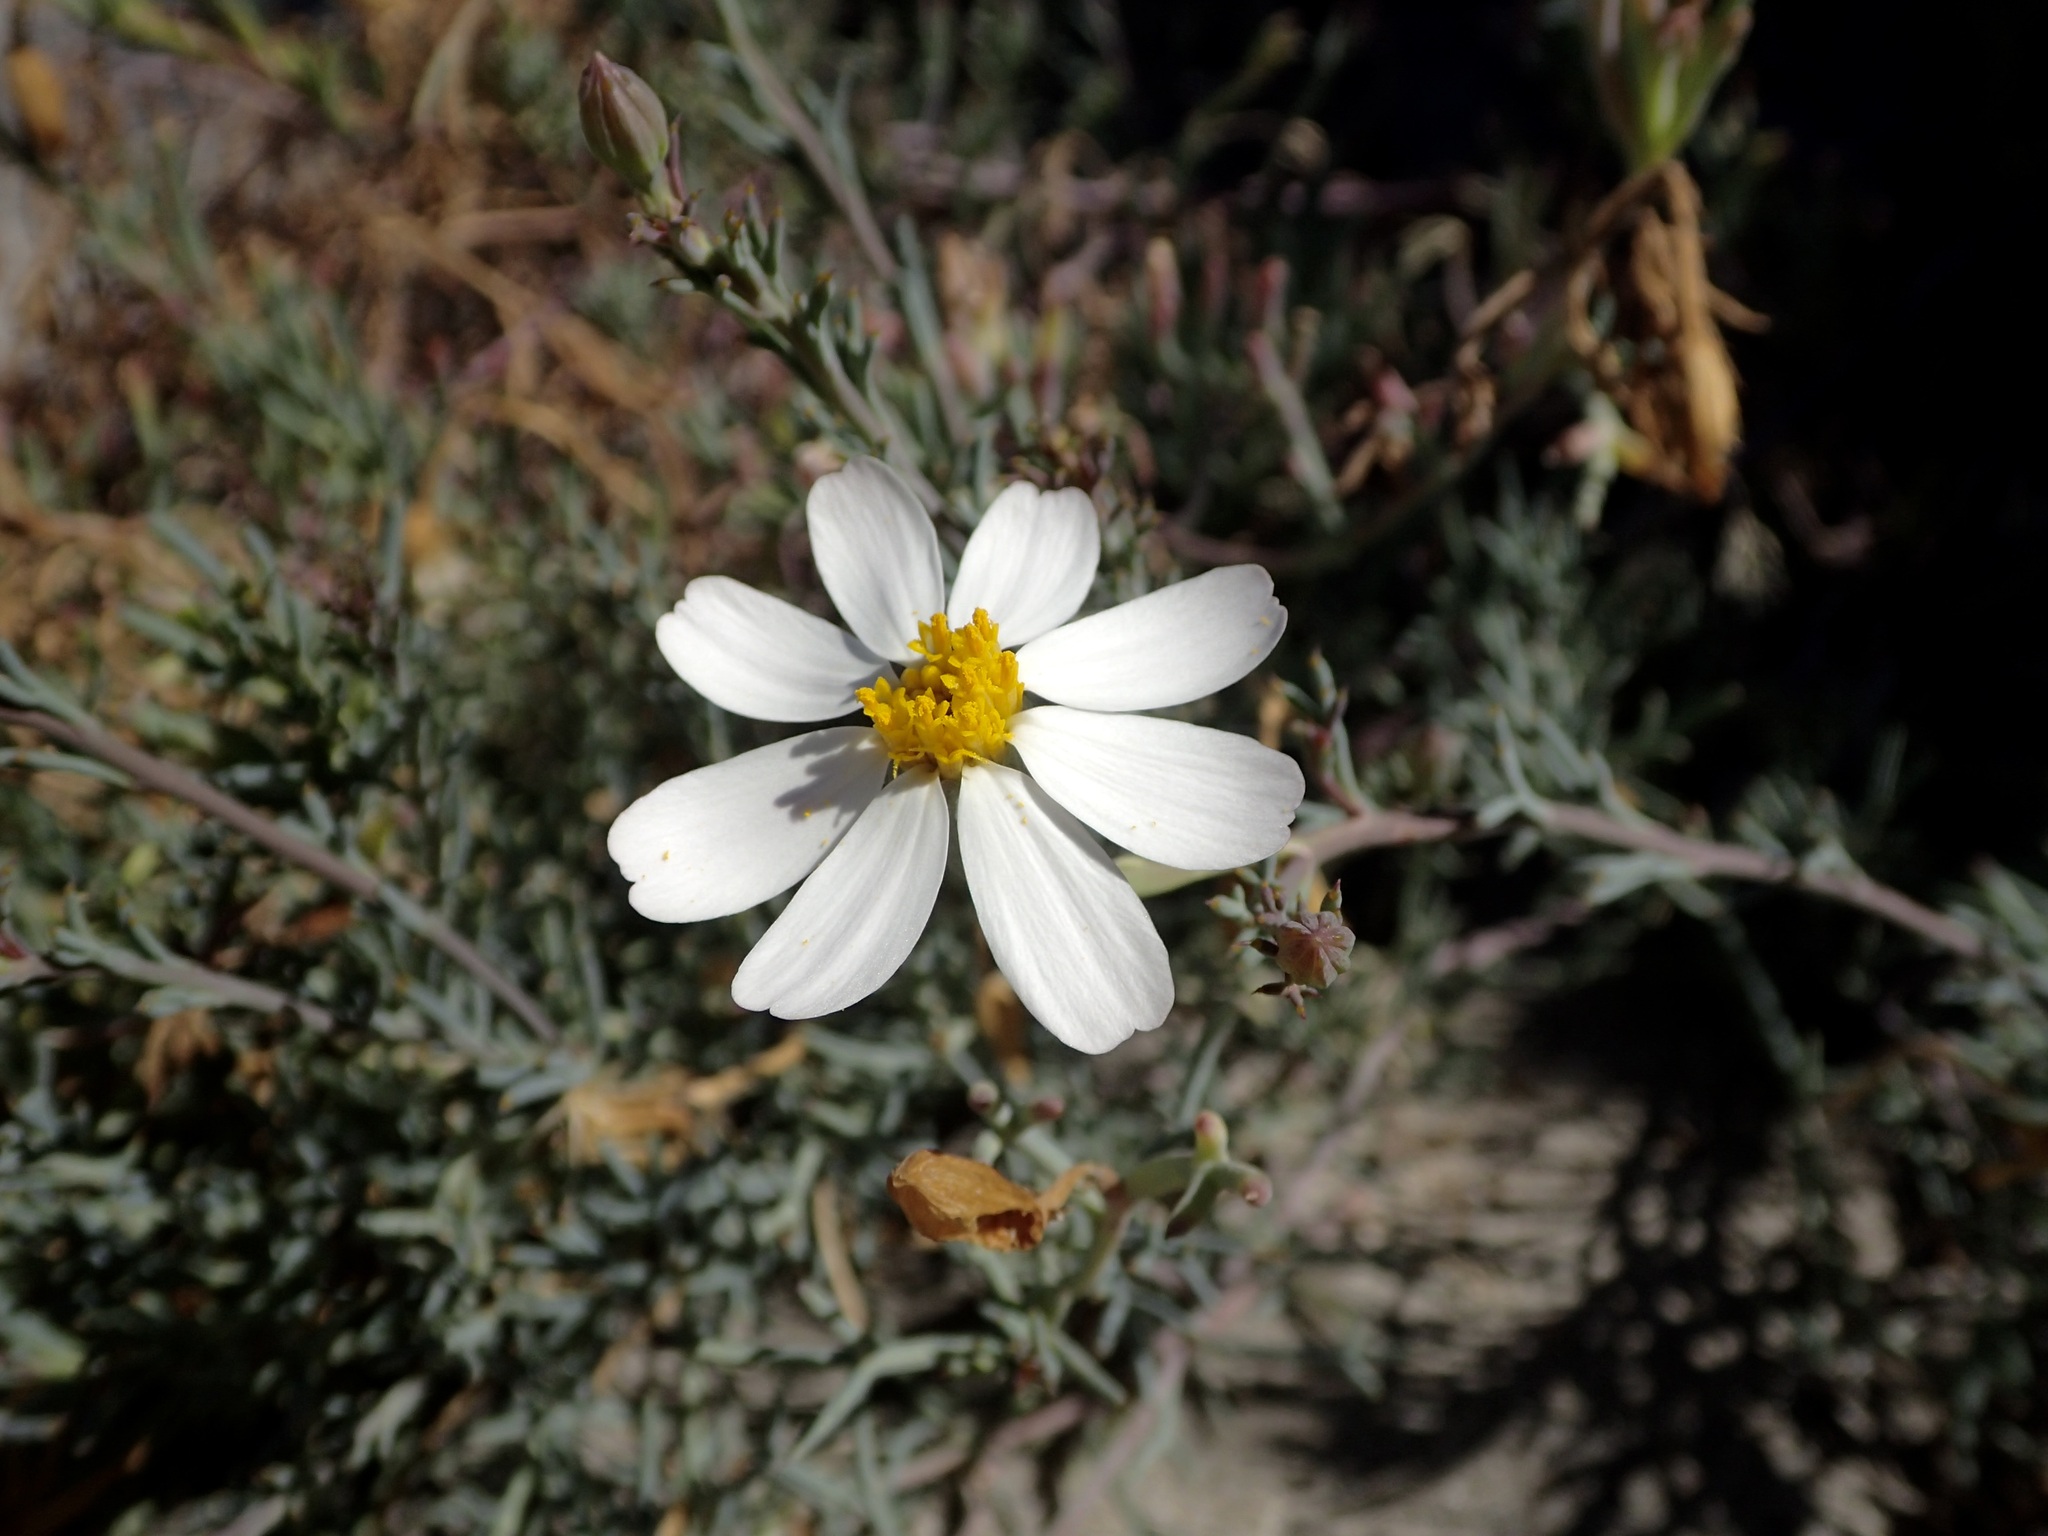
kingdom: Plantae
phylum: Tracheophyta
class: Magnoliopsida
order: Asterales
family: Asteraceae
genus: Nicolletia
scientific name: Nicolletia trifida
